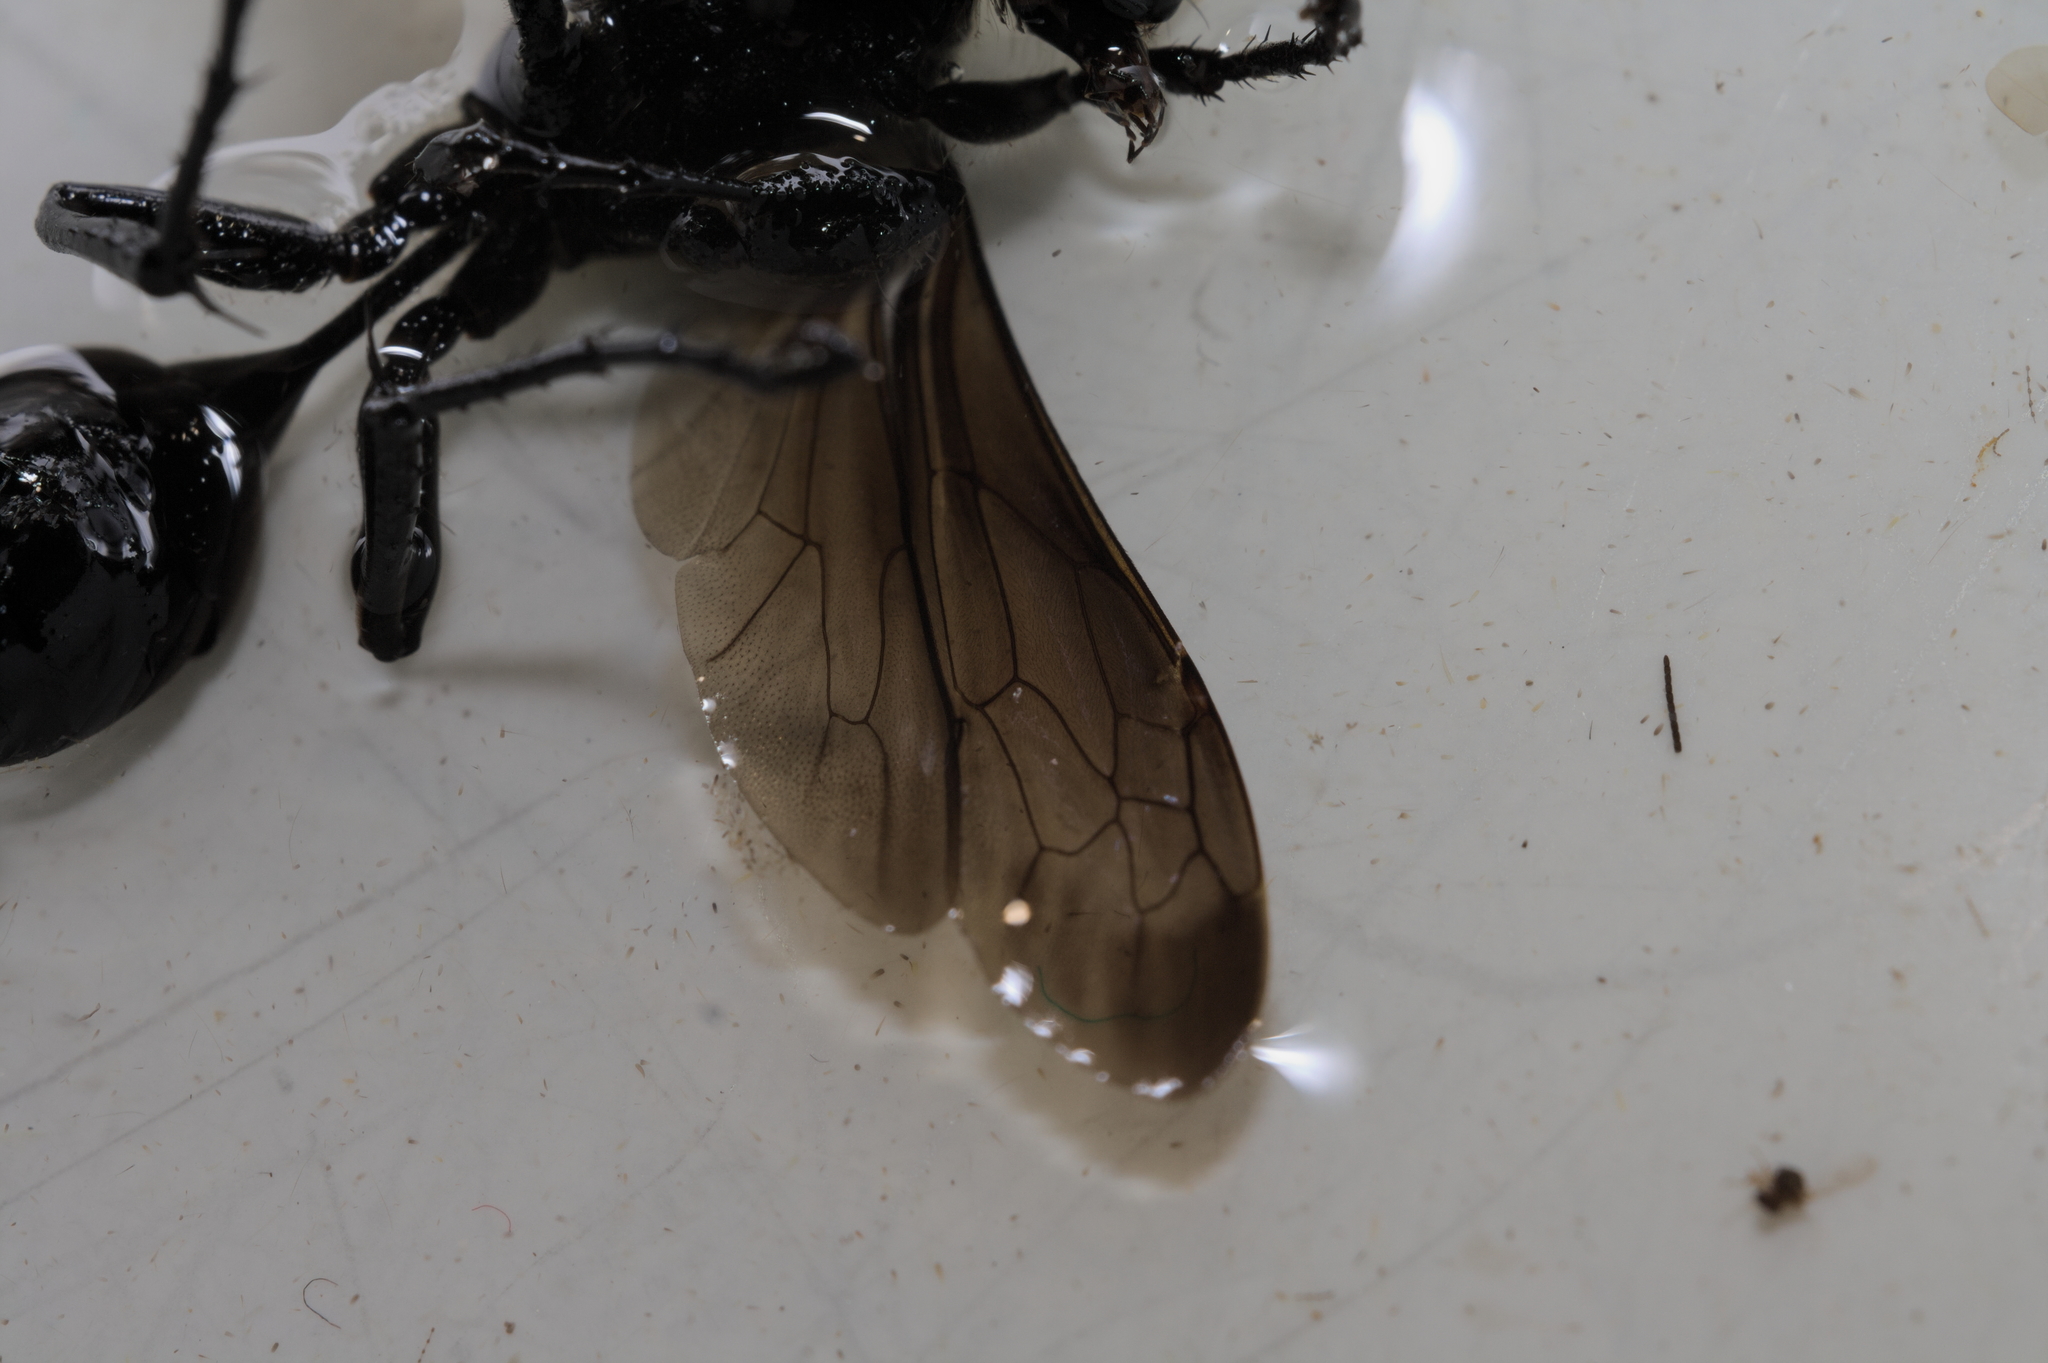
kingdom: Animalia
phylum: Arthropoda
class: Insecta
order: Hymenoptera
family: Sphecidae
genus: Isodontia
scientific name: Isodontia mexicana
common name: Mud dauber
